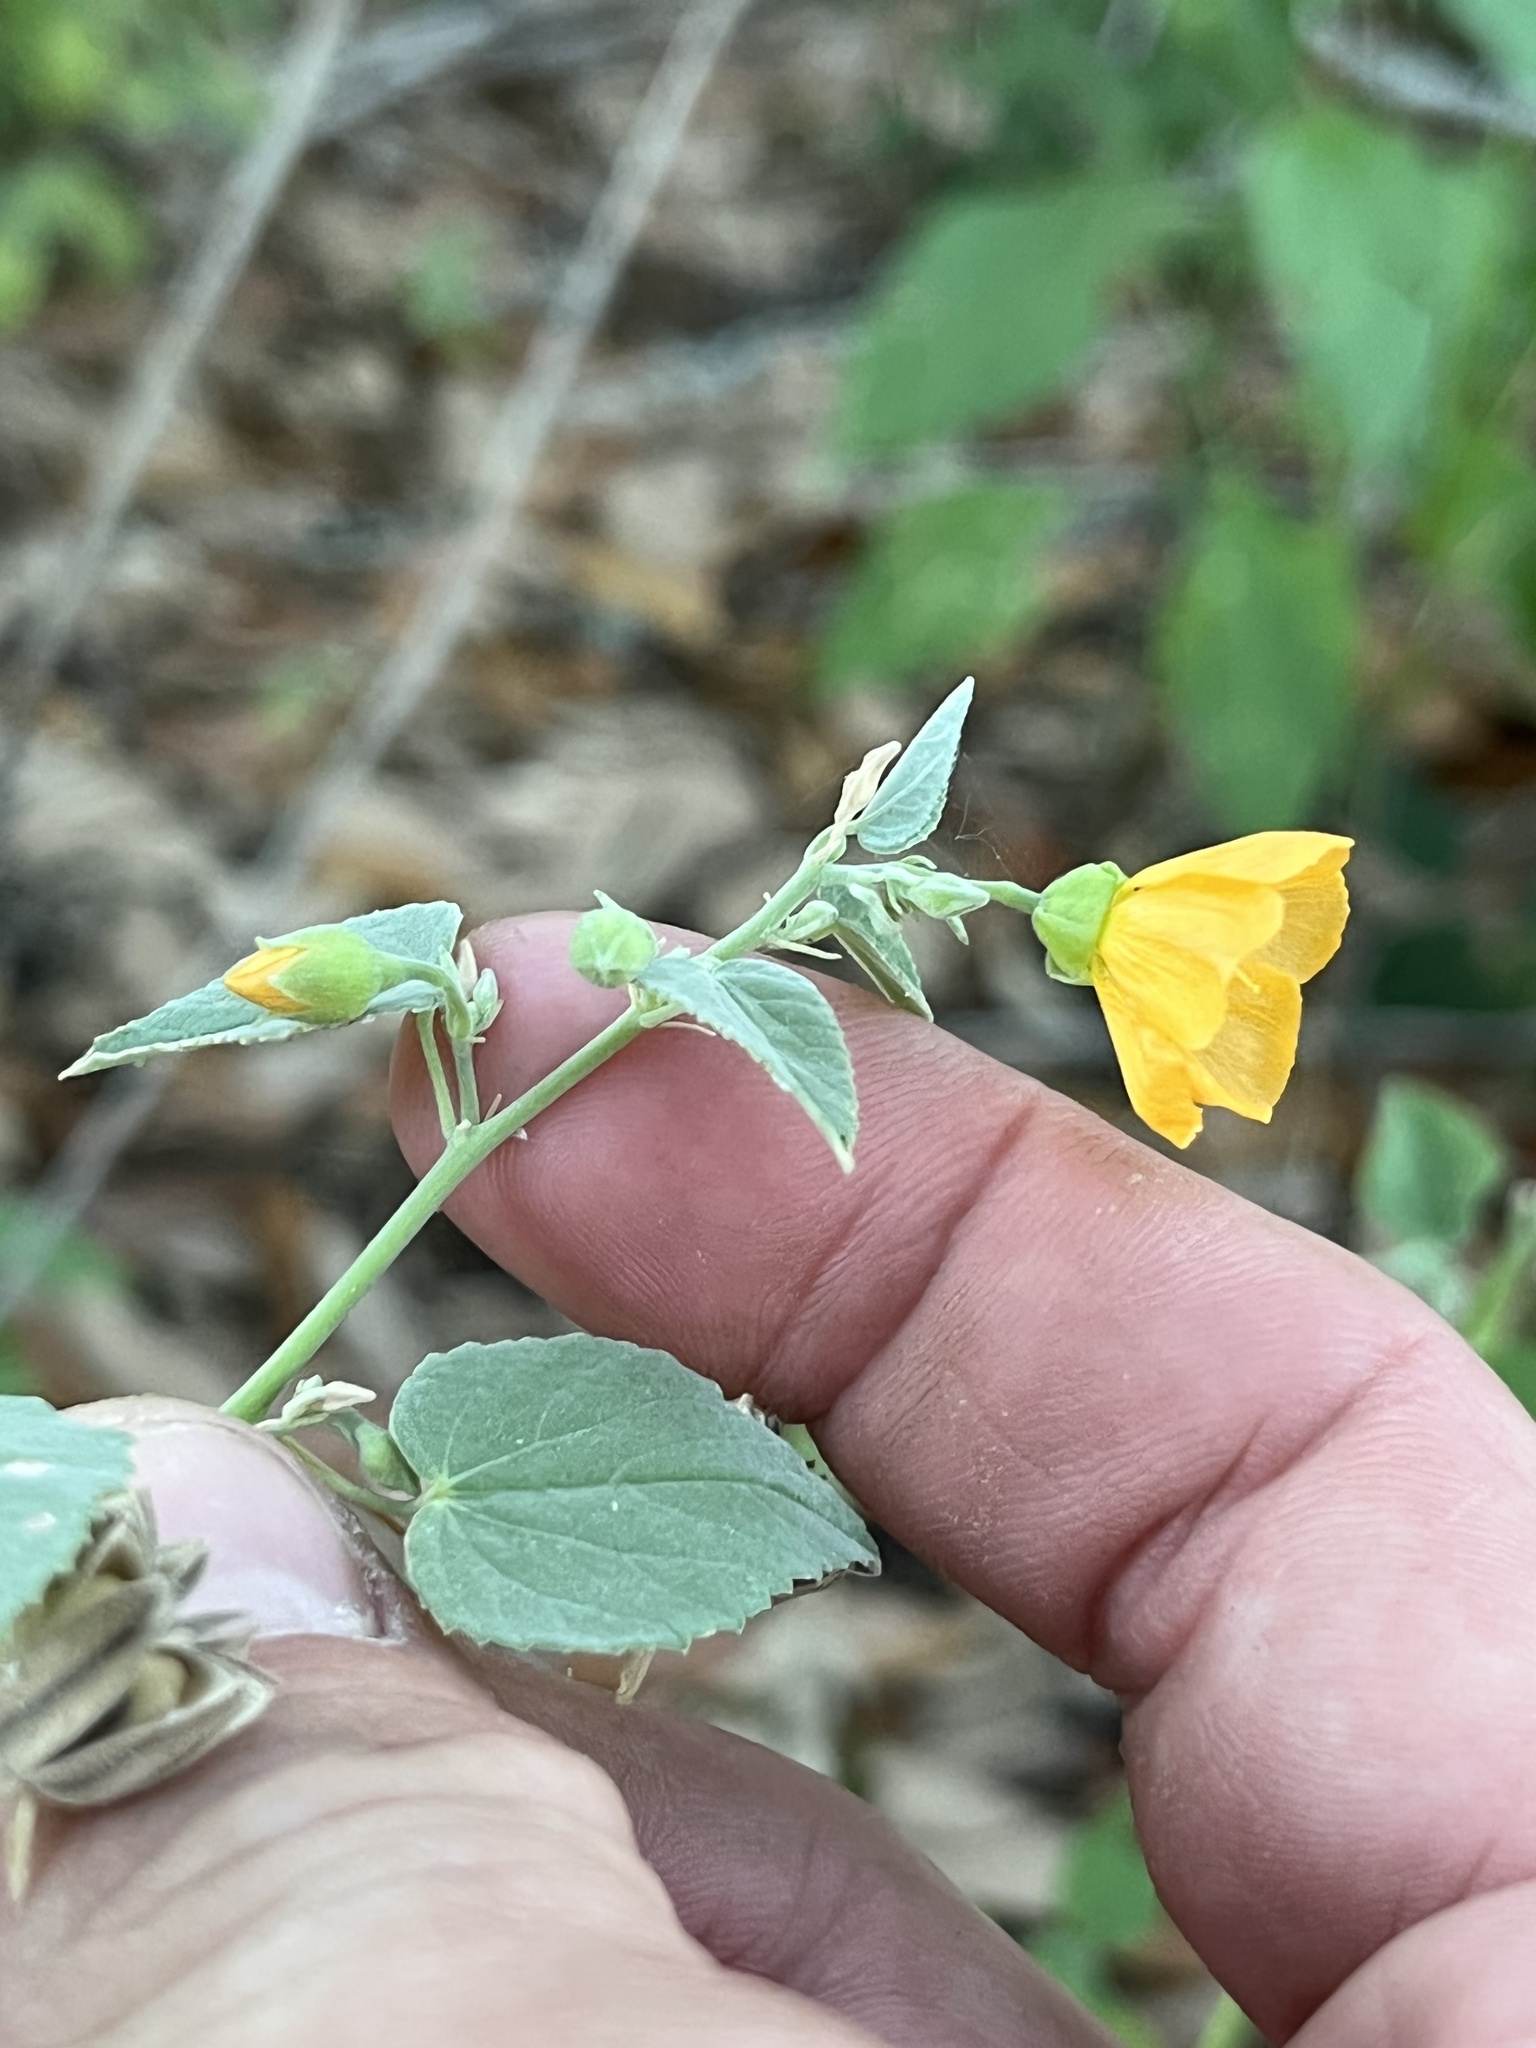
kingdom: Plantae
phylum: Tracheophyta
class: Magnoliopsida
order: Malvales
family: Malvaceae
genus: Abutilon
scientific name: Abutilon fruticosum
